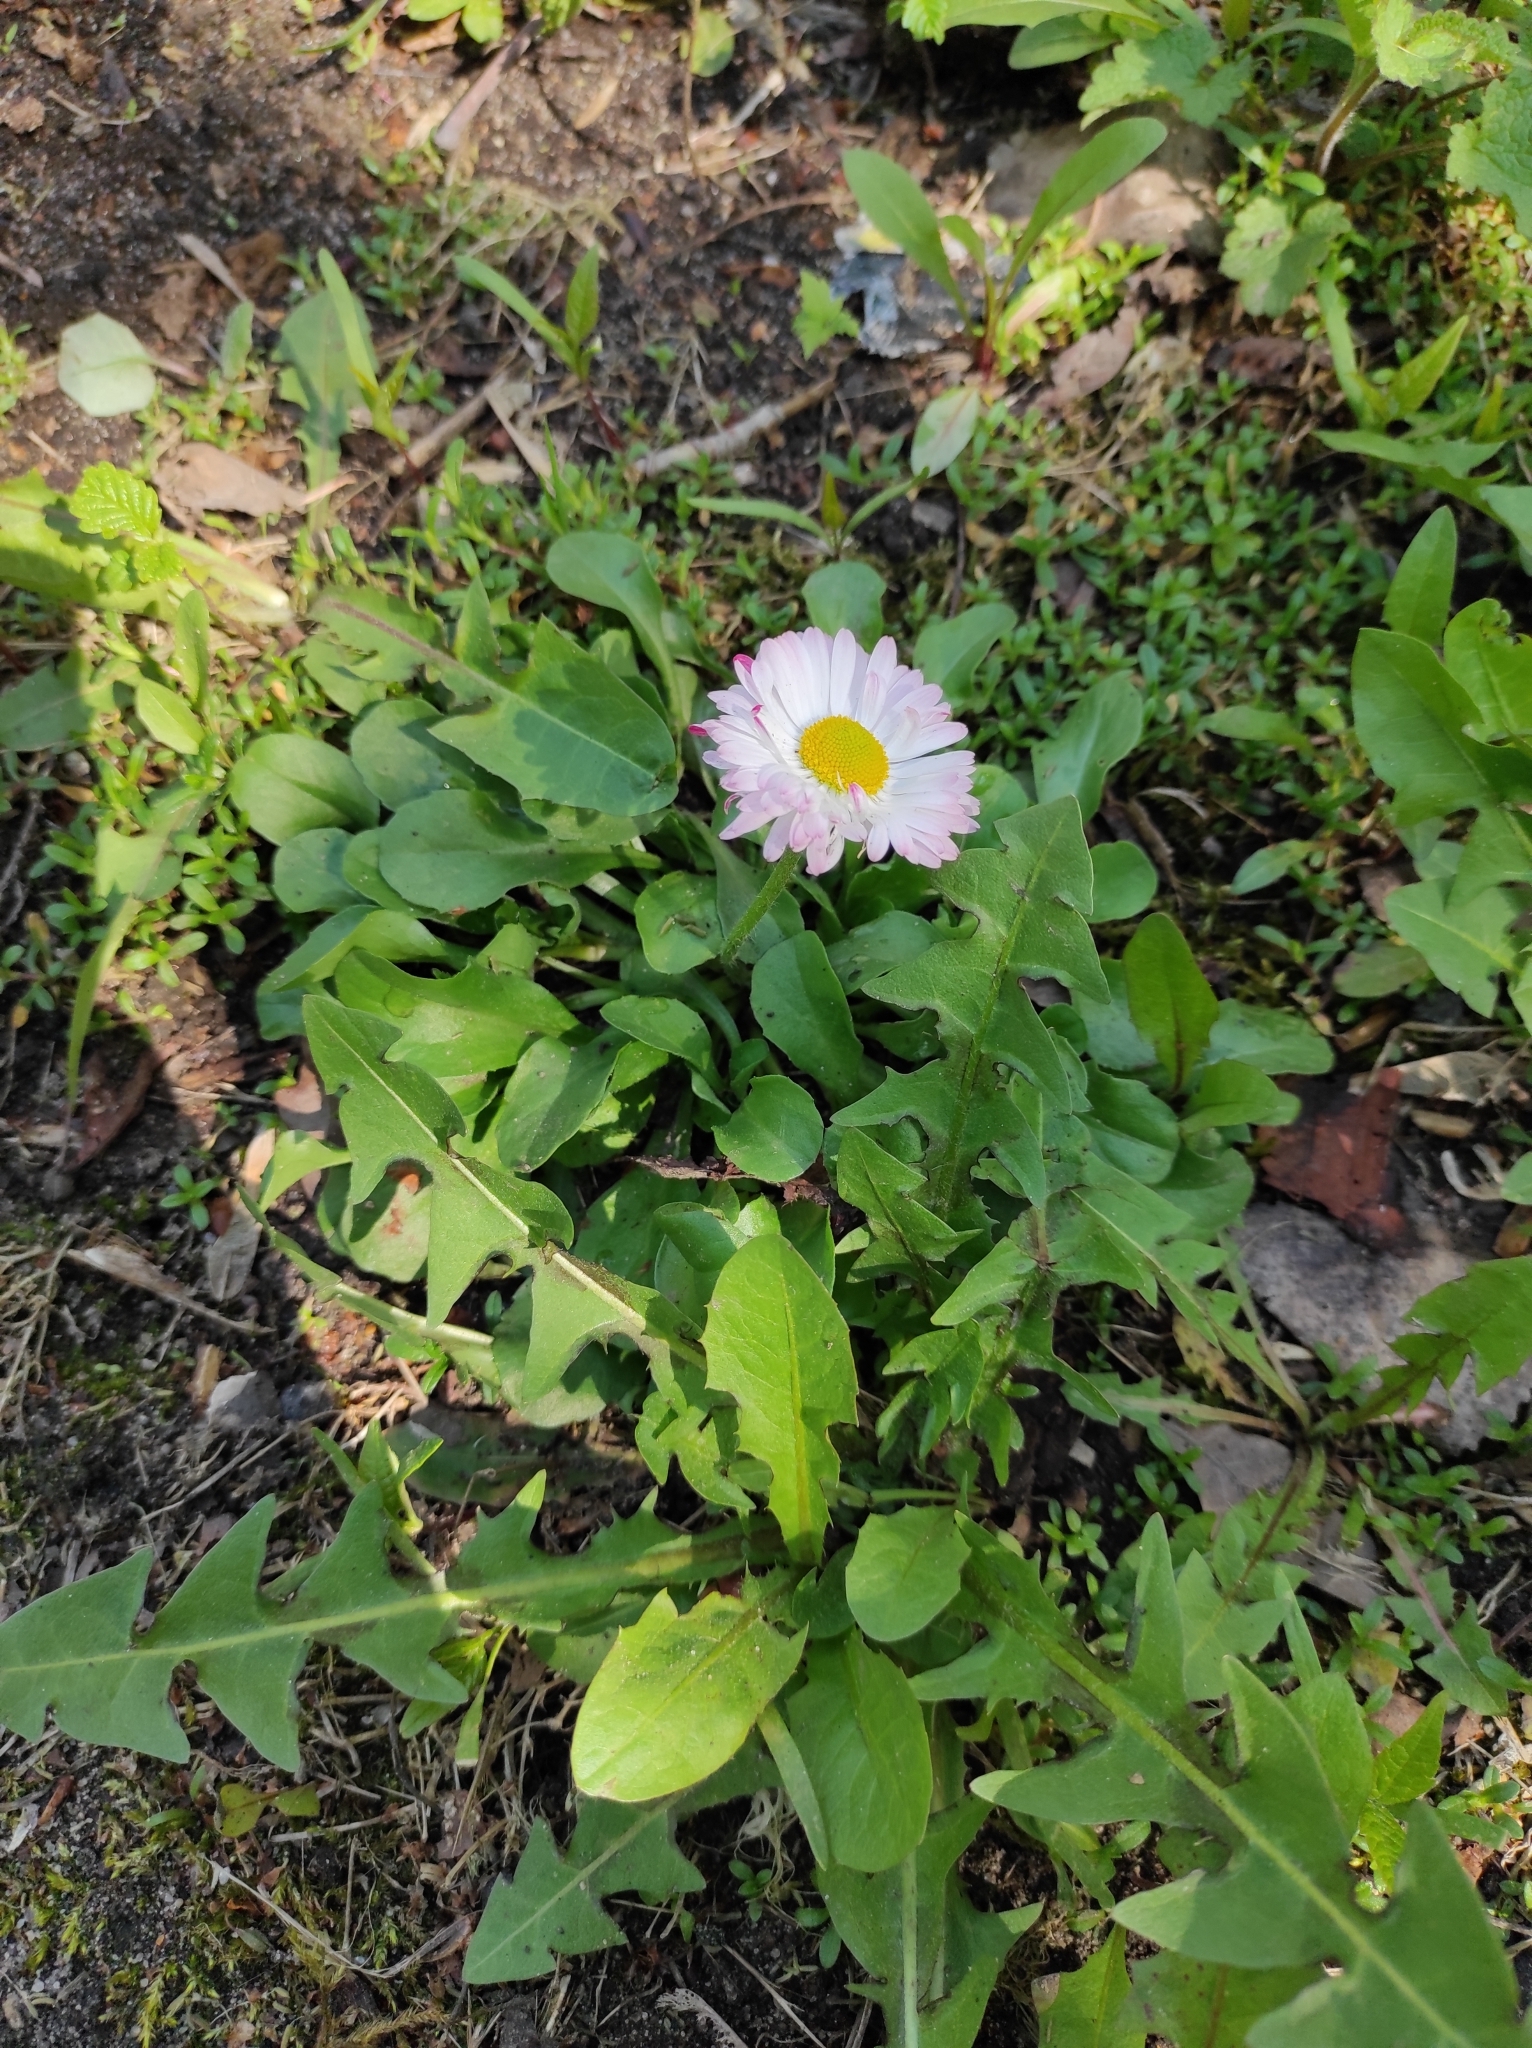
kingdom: Plantae
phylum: Tracheophyta
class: Magnoliopsida
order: Asterales
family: Asteraceae
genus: Bellis
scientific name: Bellis perennis
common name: Lawndaisy
